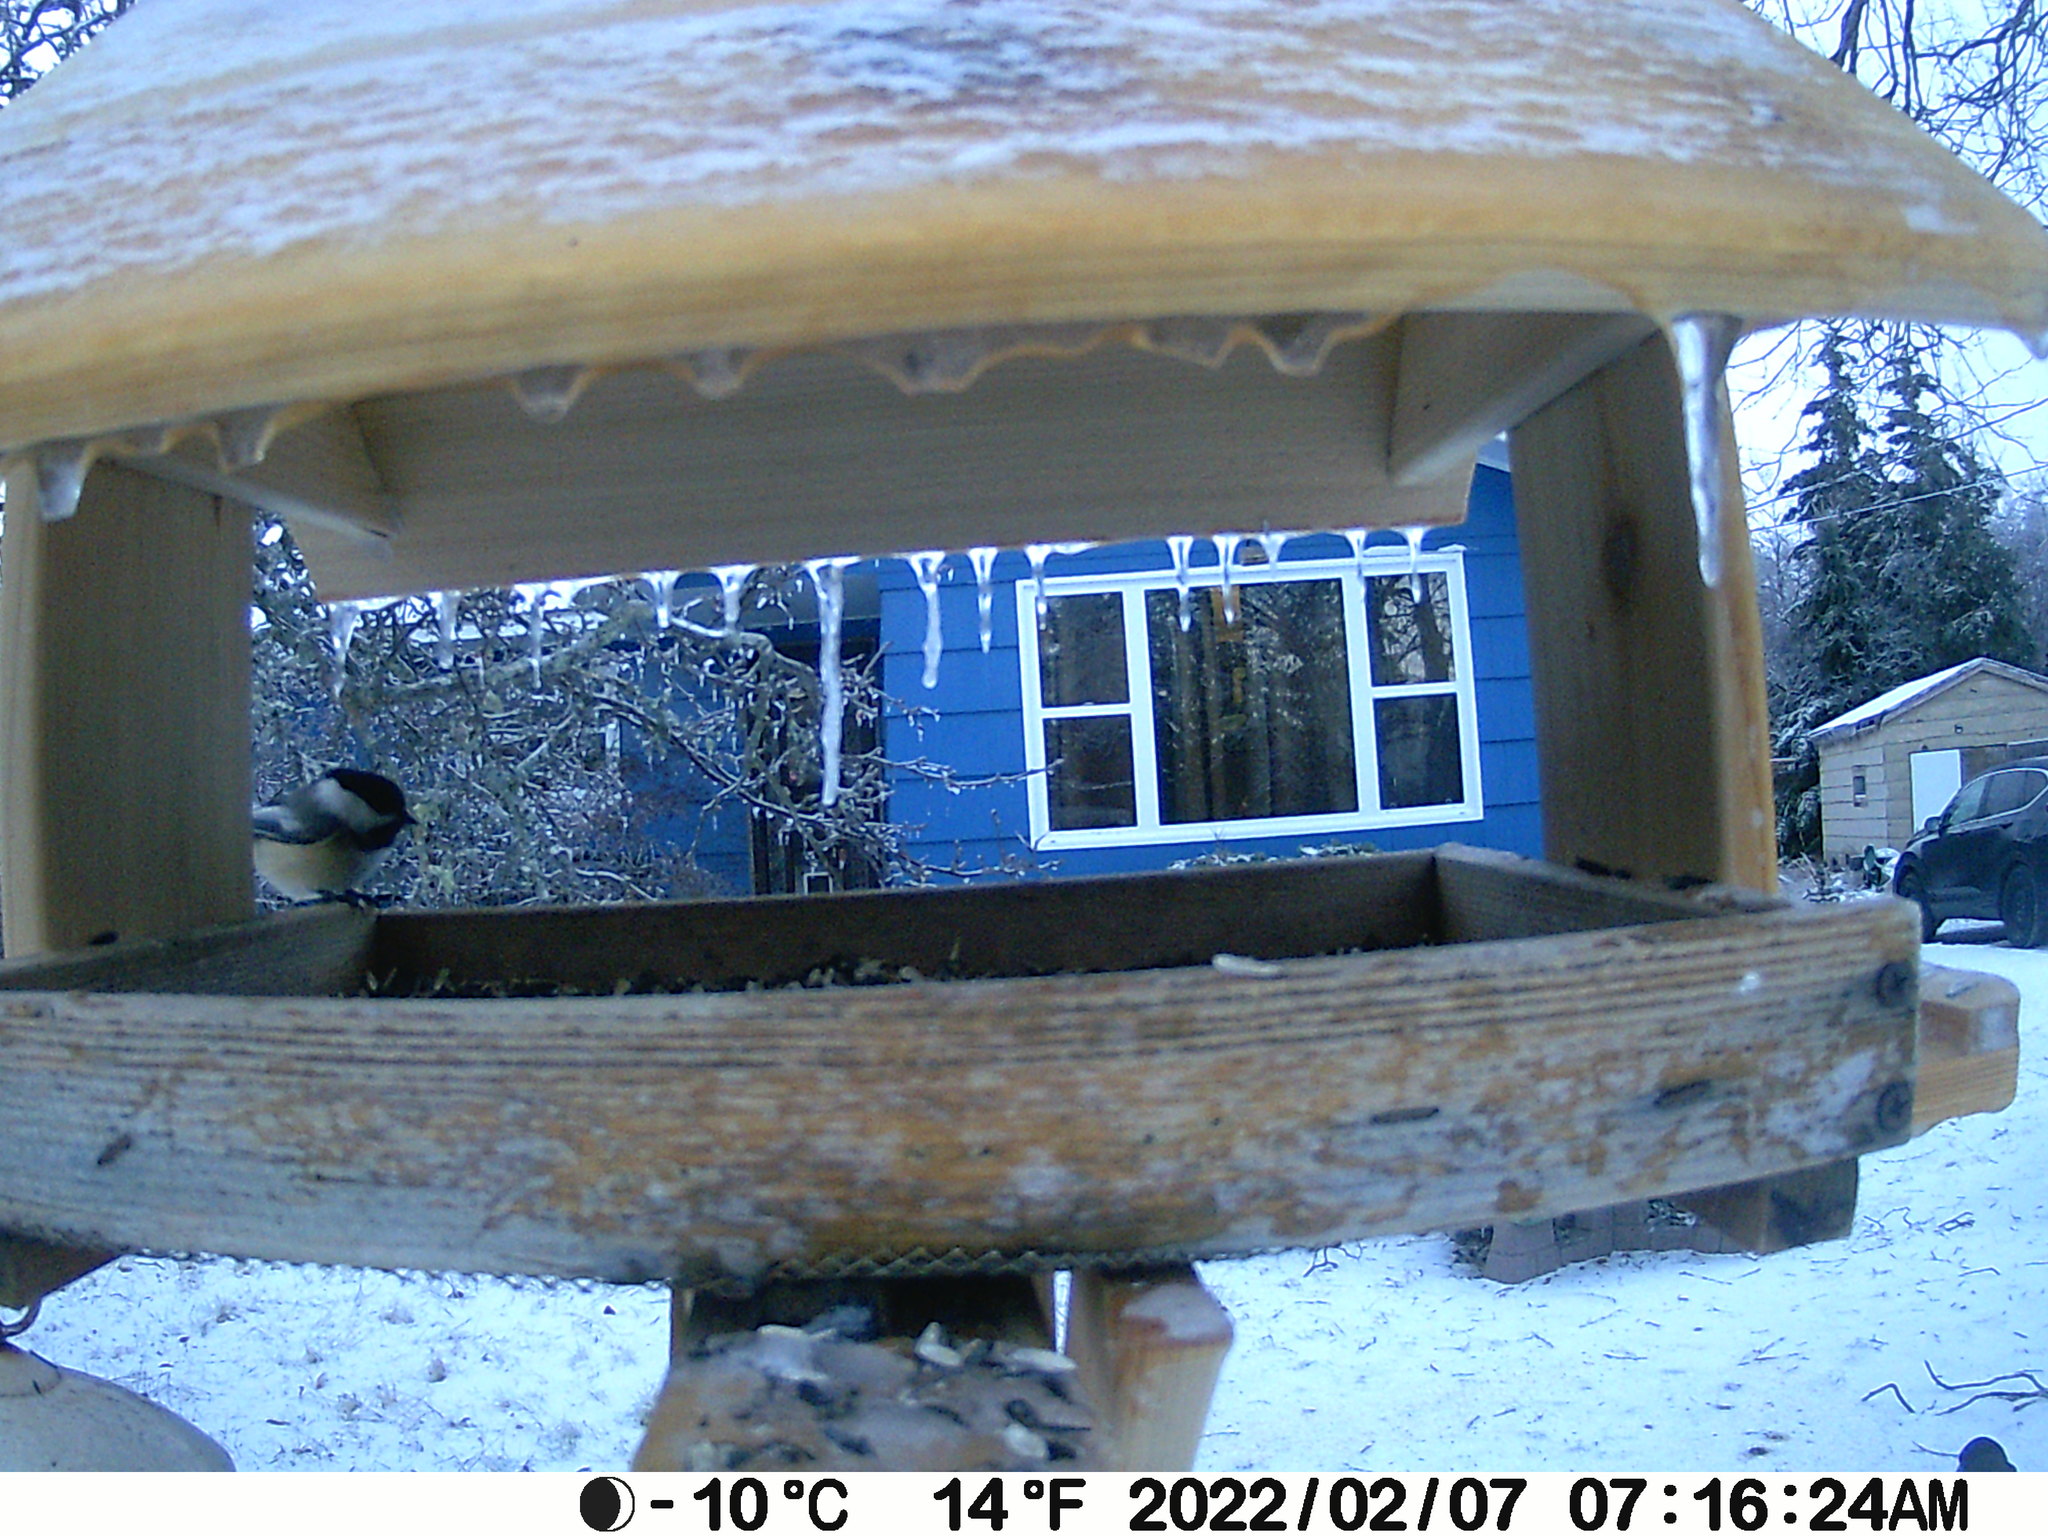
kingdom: Animalia
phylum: Chordata
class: Aves
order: Passeriformes
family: Paridae
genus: Poecile
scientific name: Poecile atricapillus
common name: Black-capped chickadee
